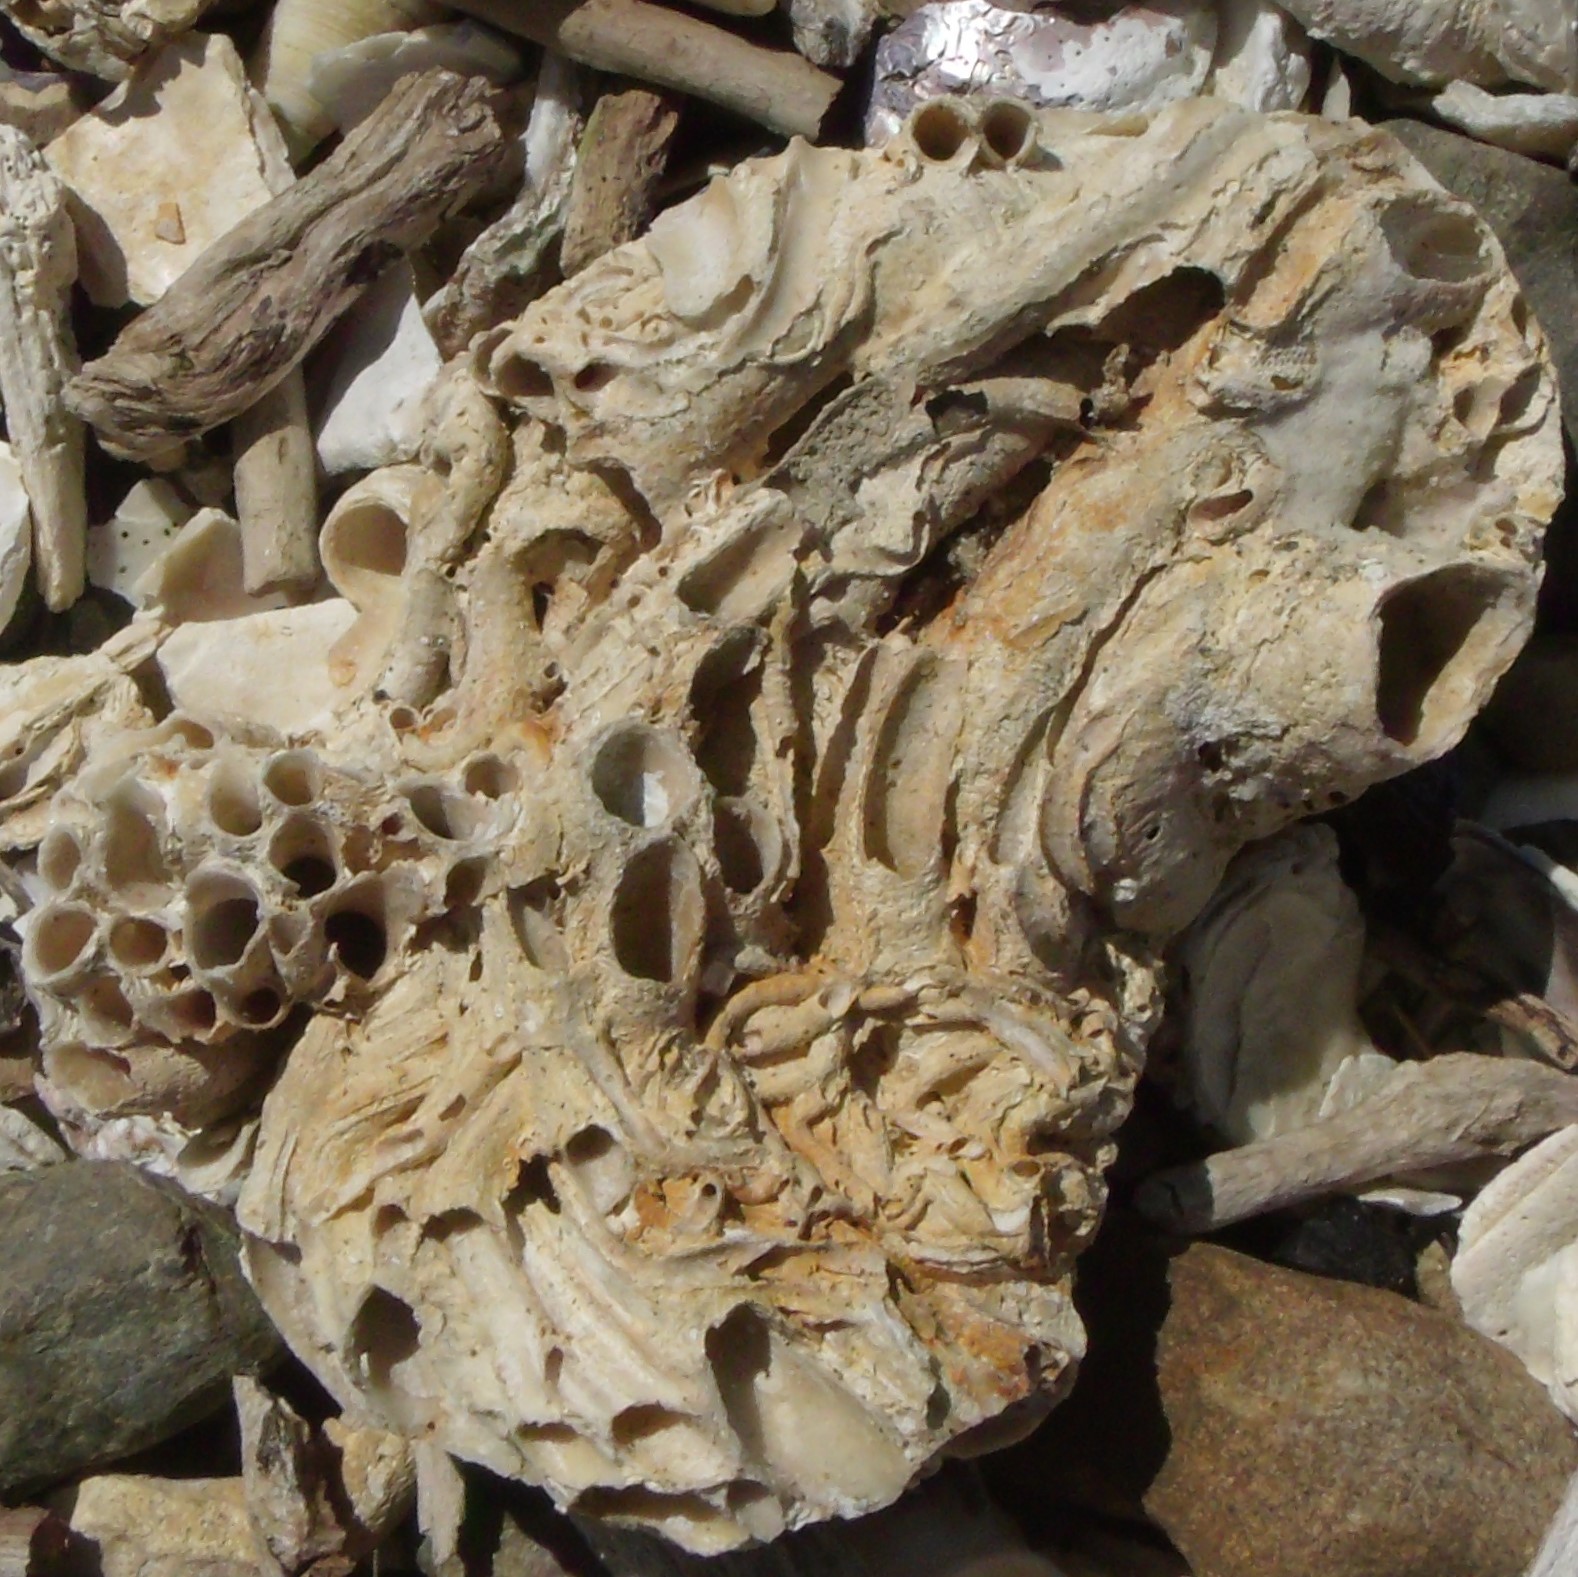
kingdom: Animalia
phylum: Mollusca
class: Gastropoda
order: Littorinimorpha
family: Vermetidae
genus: Novastoa
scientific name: Novastoa lamellosa
